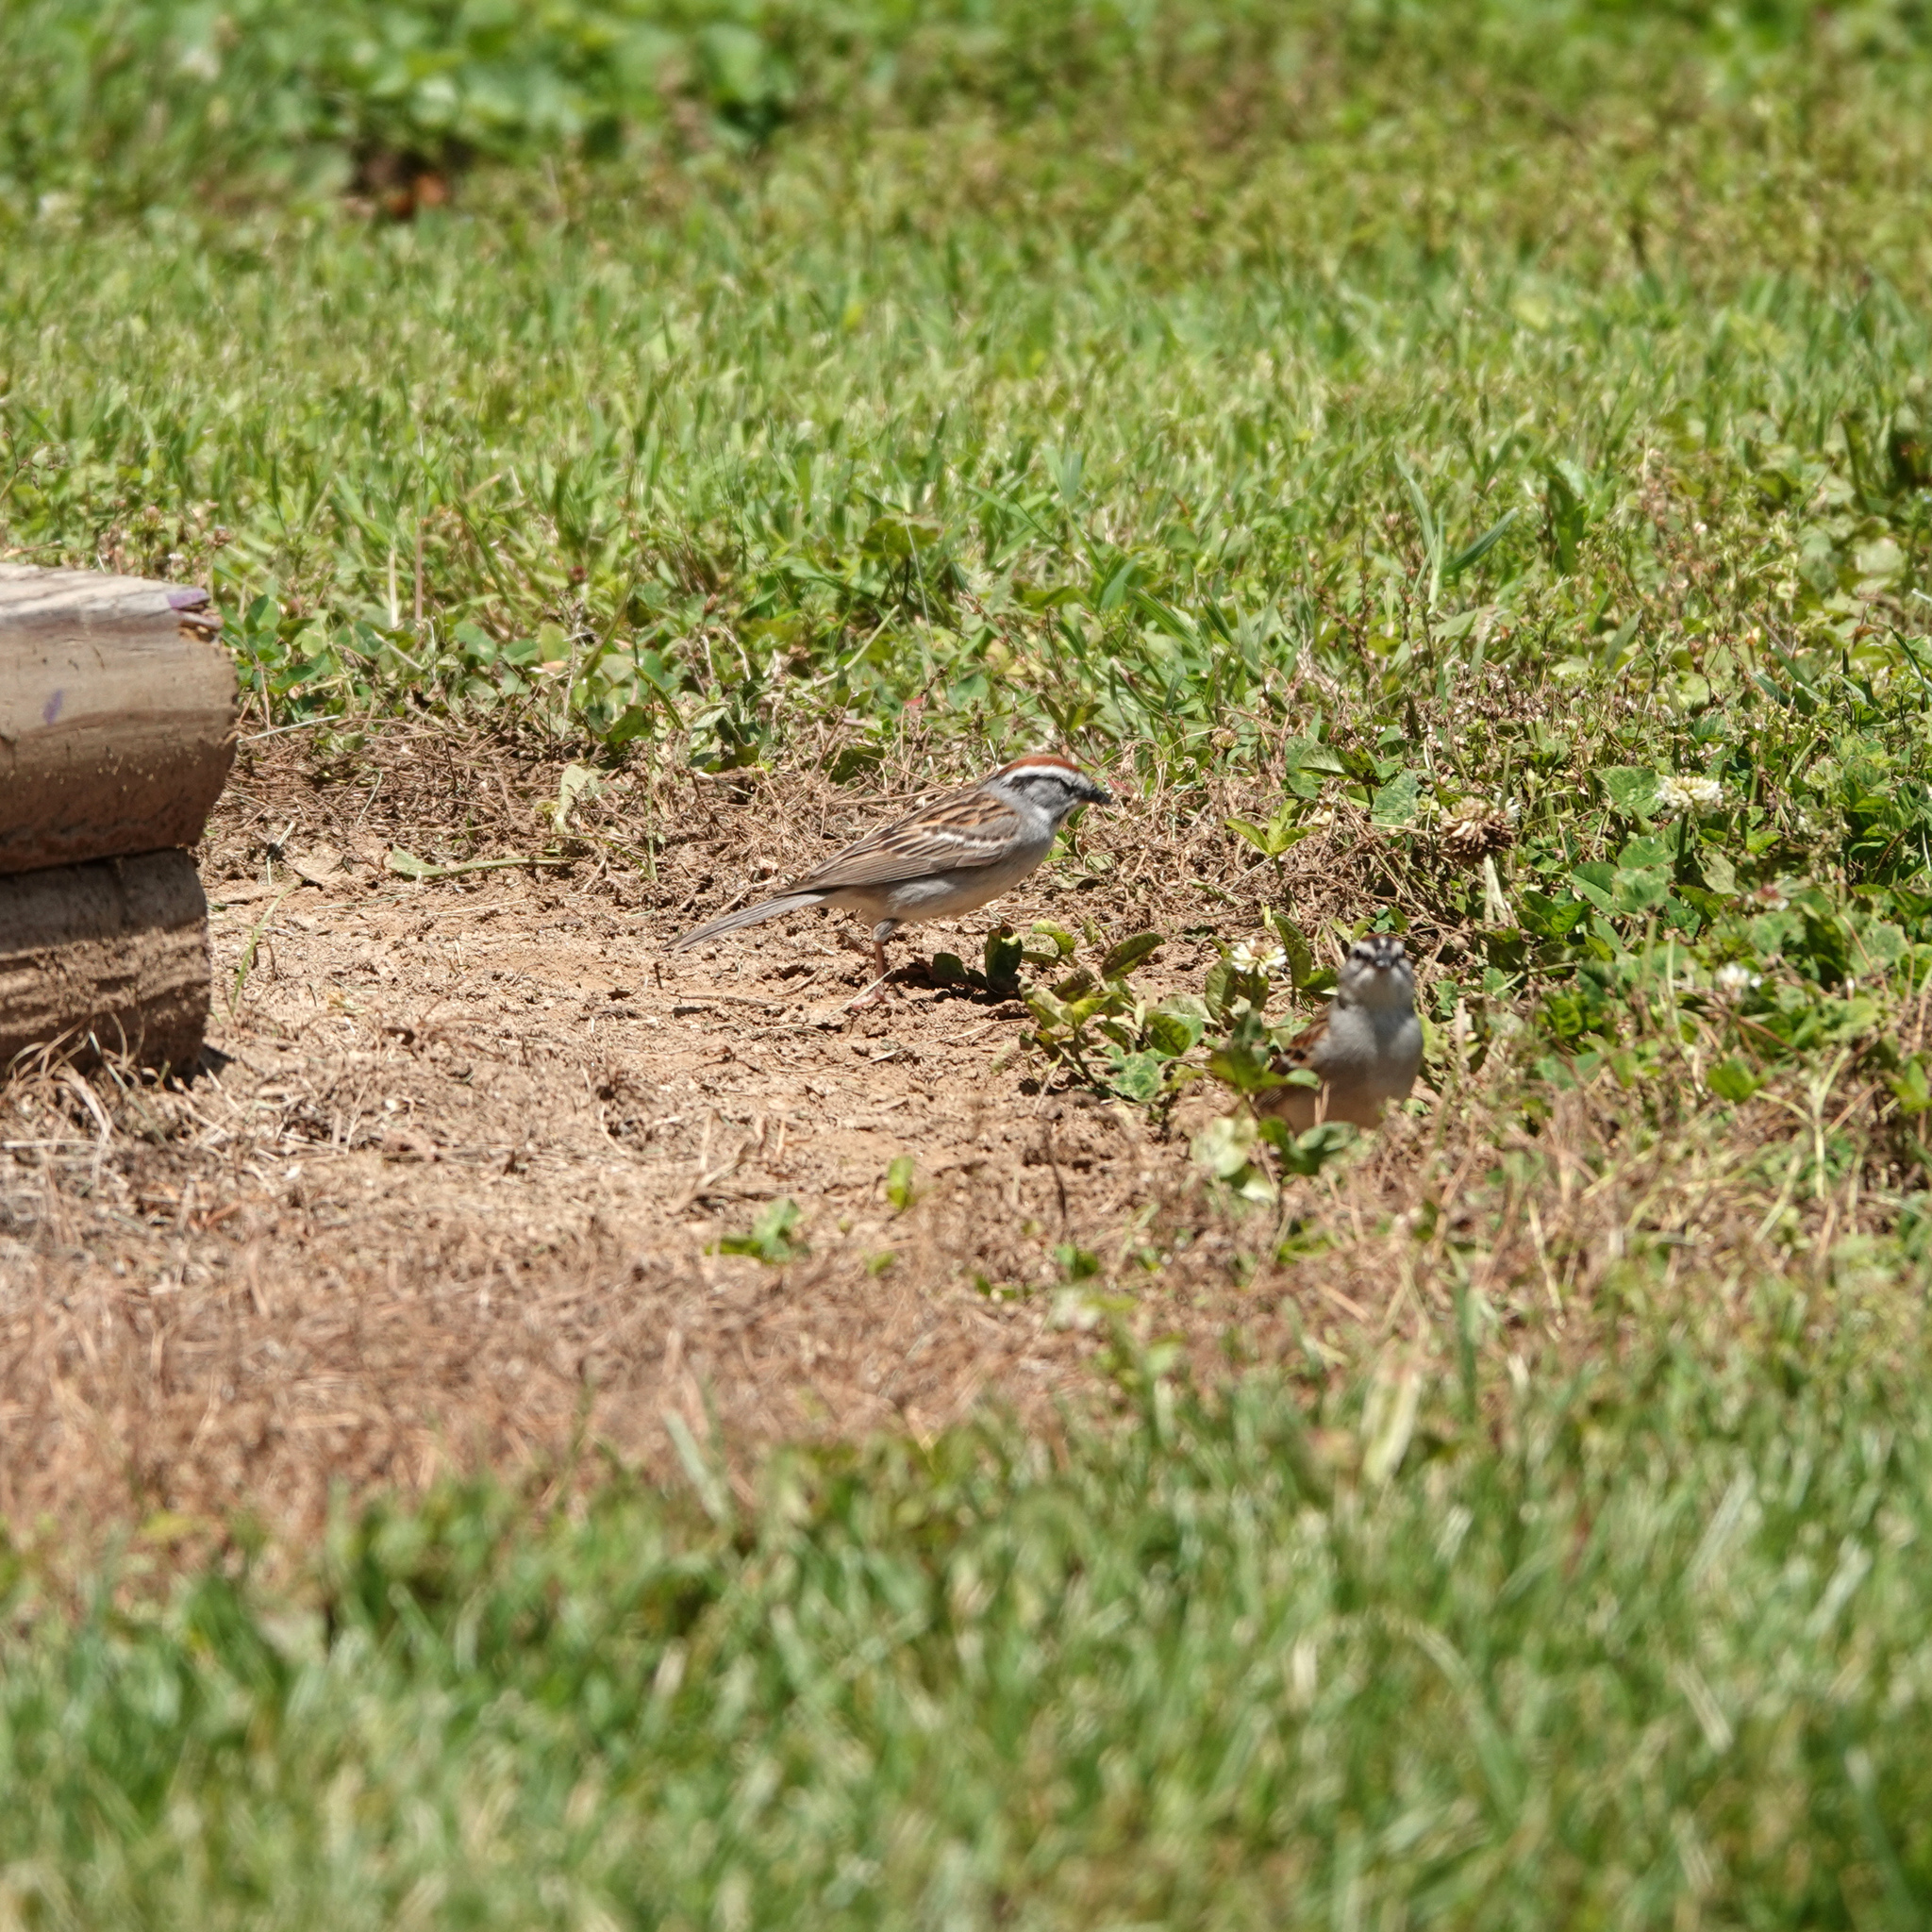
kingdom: Animalia
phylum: Chordata
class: Aves
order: Passeriformes
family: Passerellidae
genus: Spizella
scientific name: Spizella passerina
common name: Chipping sparrow
